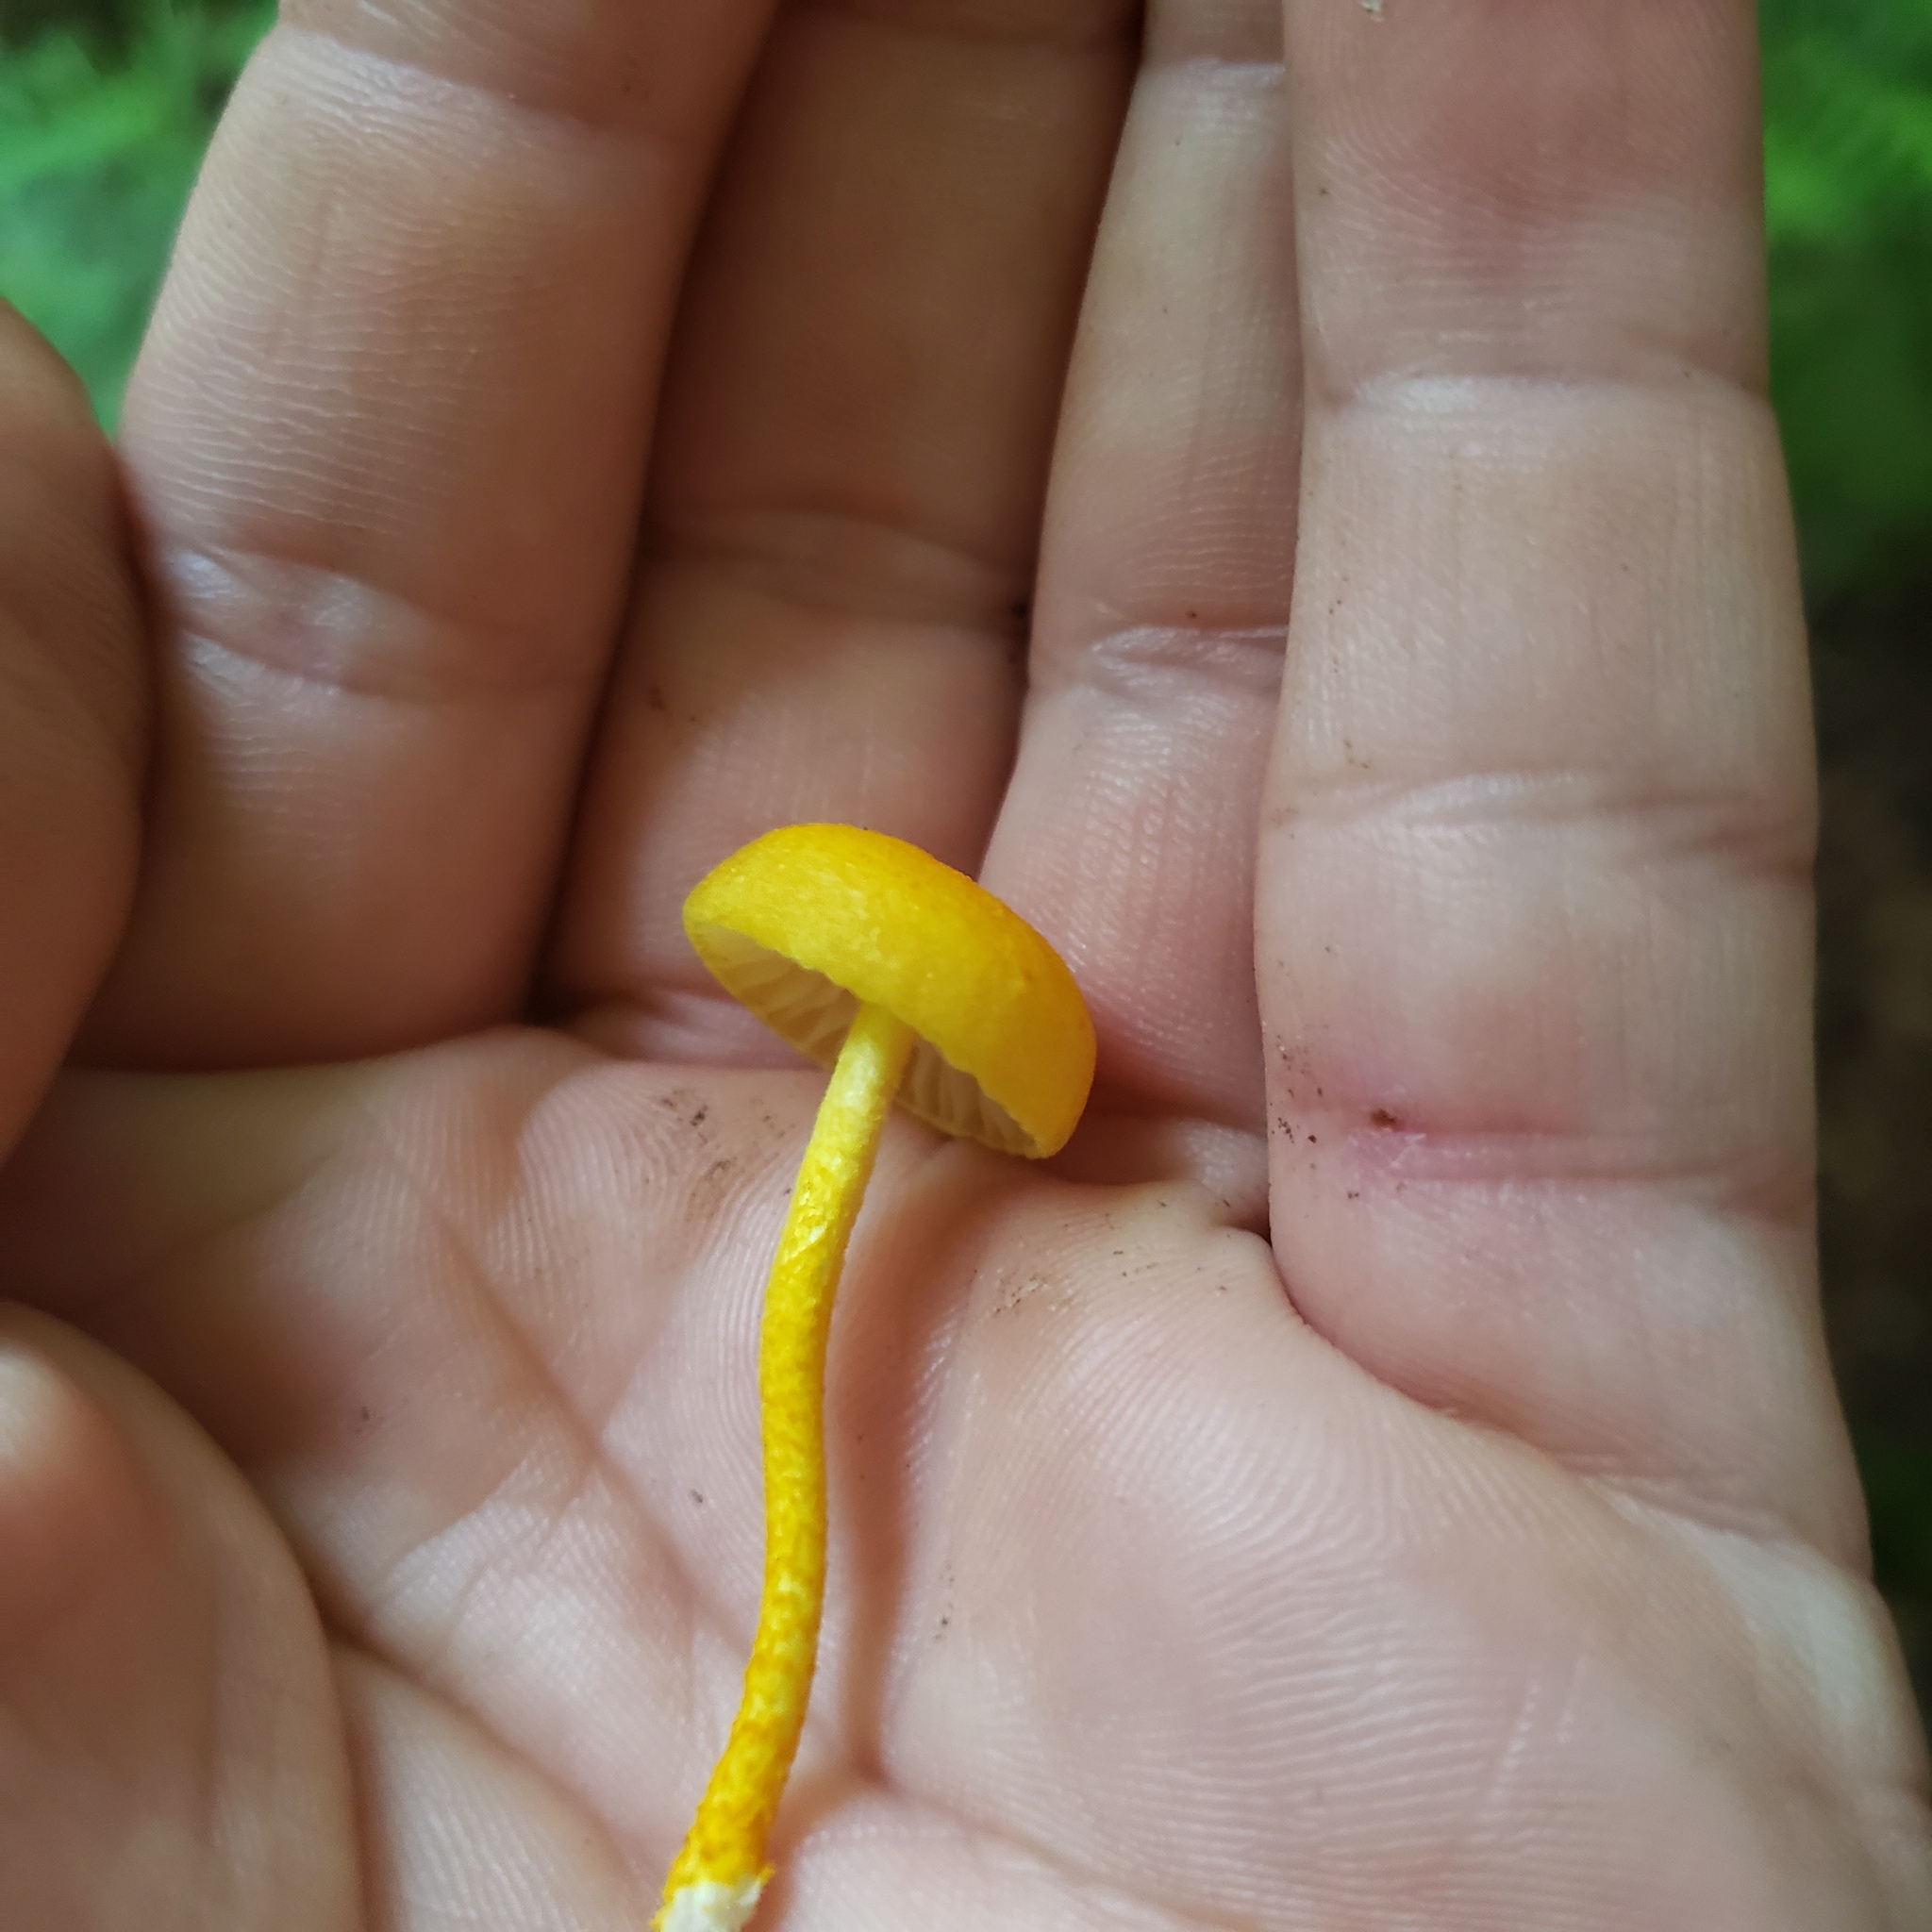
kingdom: Fungi
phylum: Basidiomycota
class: Agaricomycetes
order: Agaricales
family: Physalacriaceae
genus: Cyptotrama
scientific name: Cyptotrama chrysopepla
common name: Golden coincap
